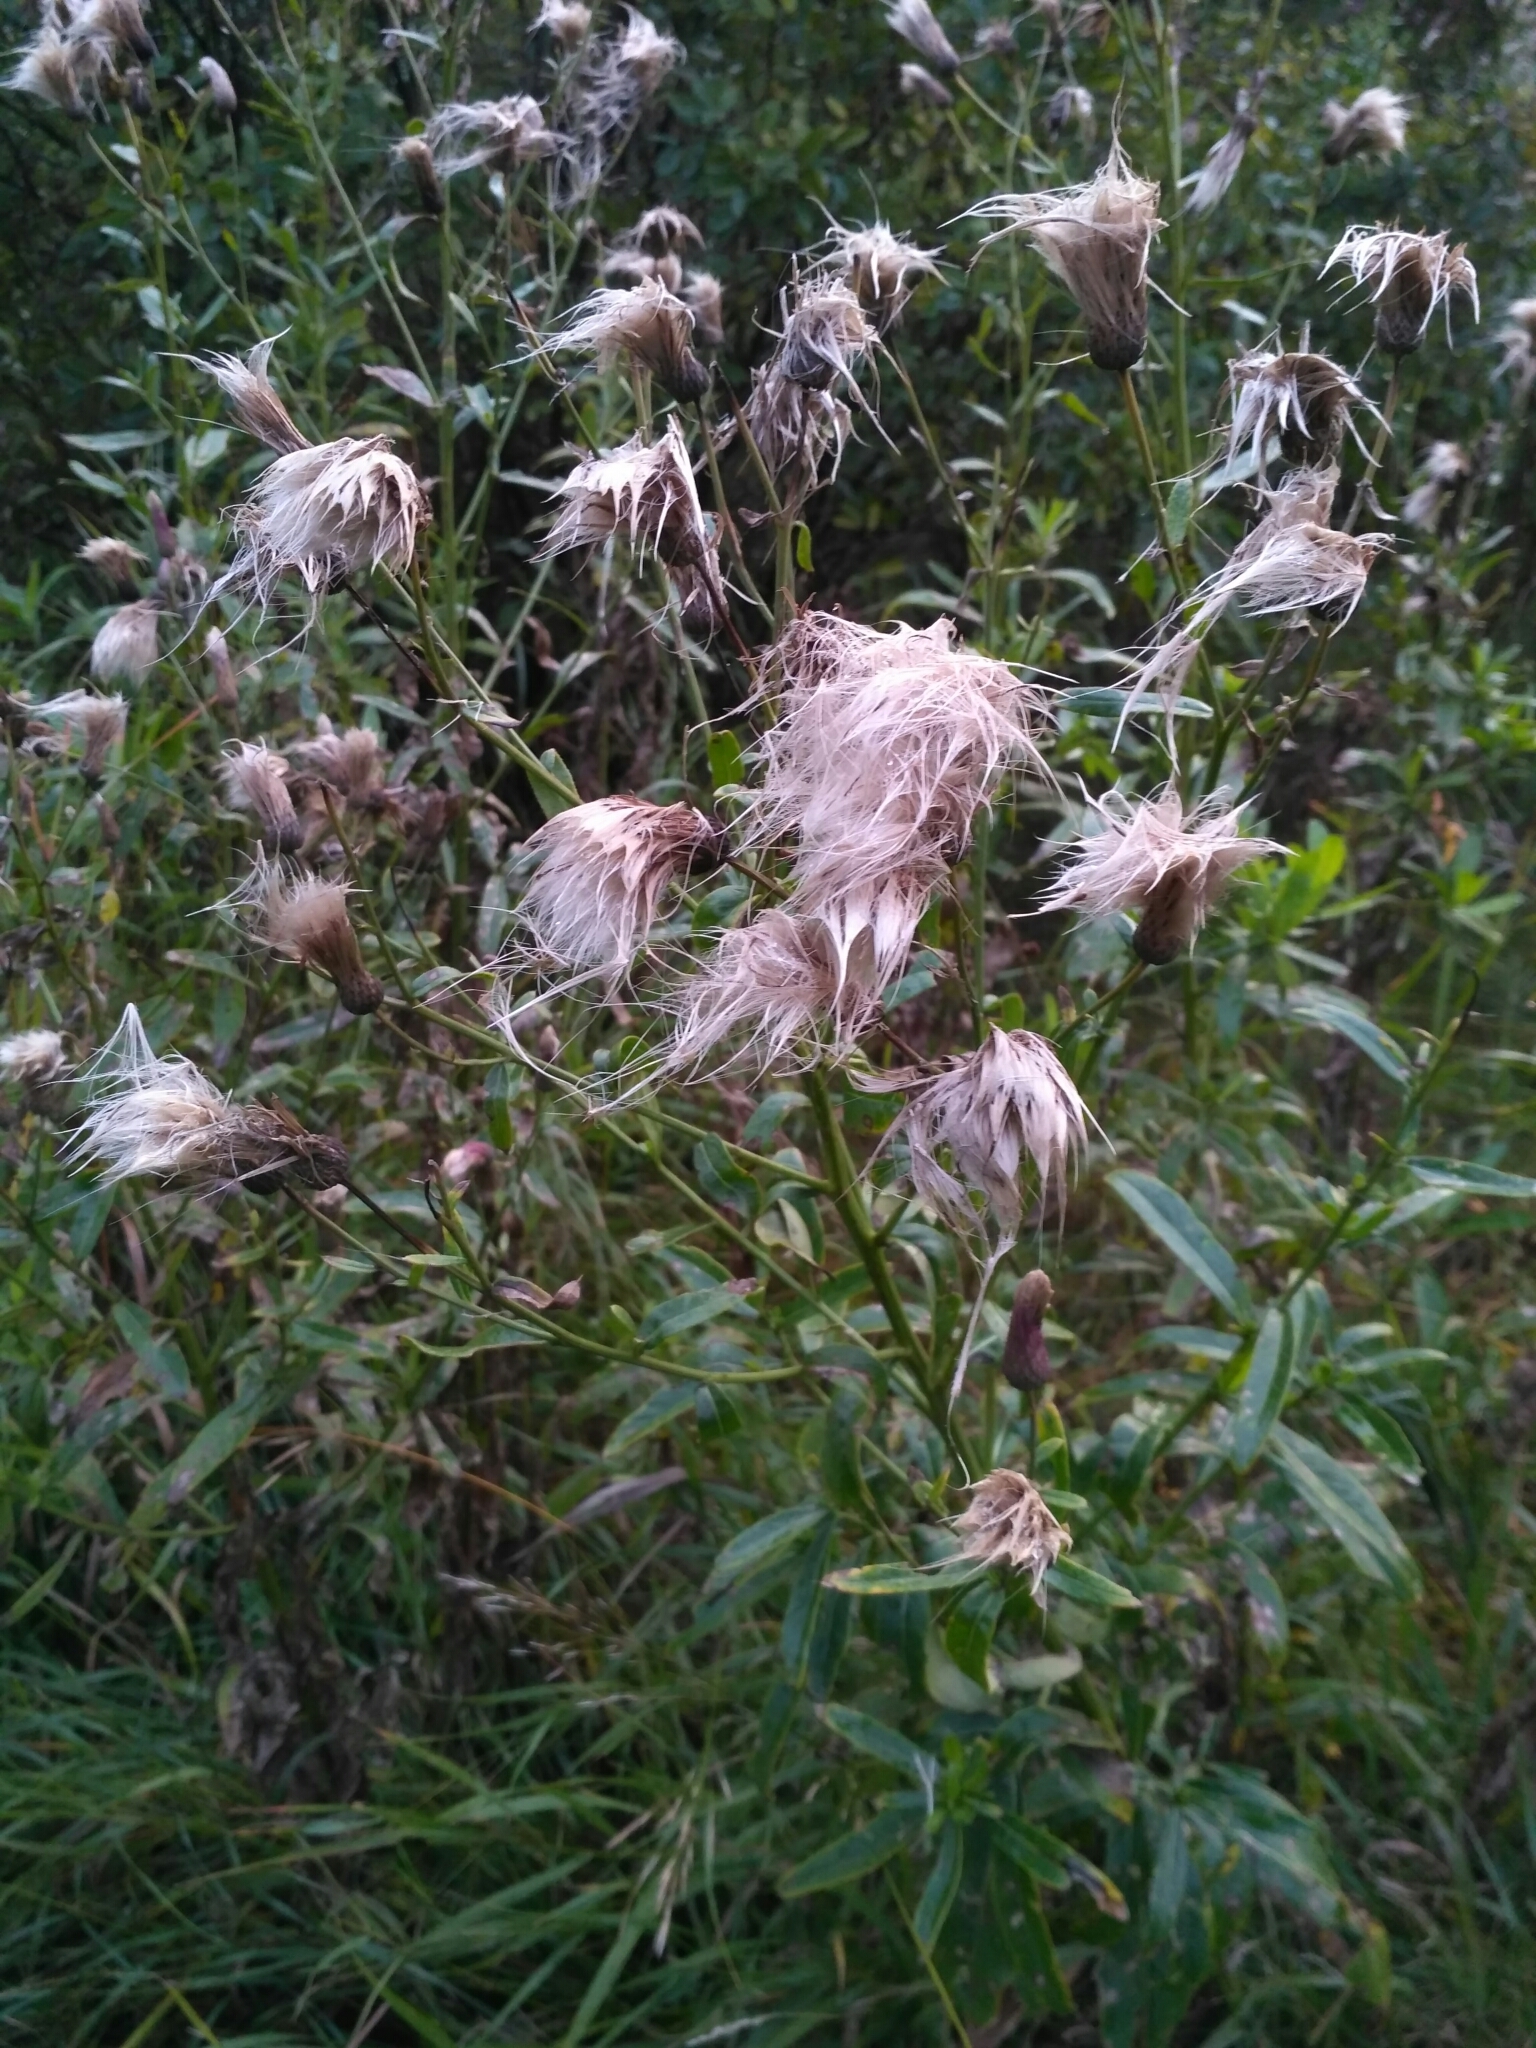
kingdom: Plantae
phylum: Tracheophyta
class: Magnoliopsida
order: Asterales
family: Asteraceae
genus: Cirsium
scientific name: Cirsium arvense
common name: Creeping thistle
